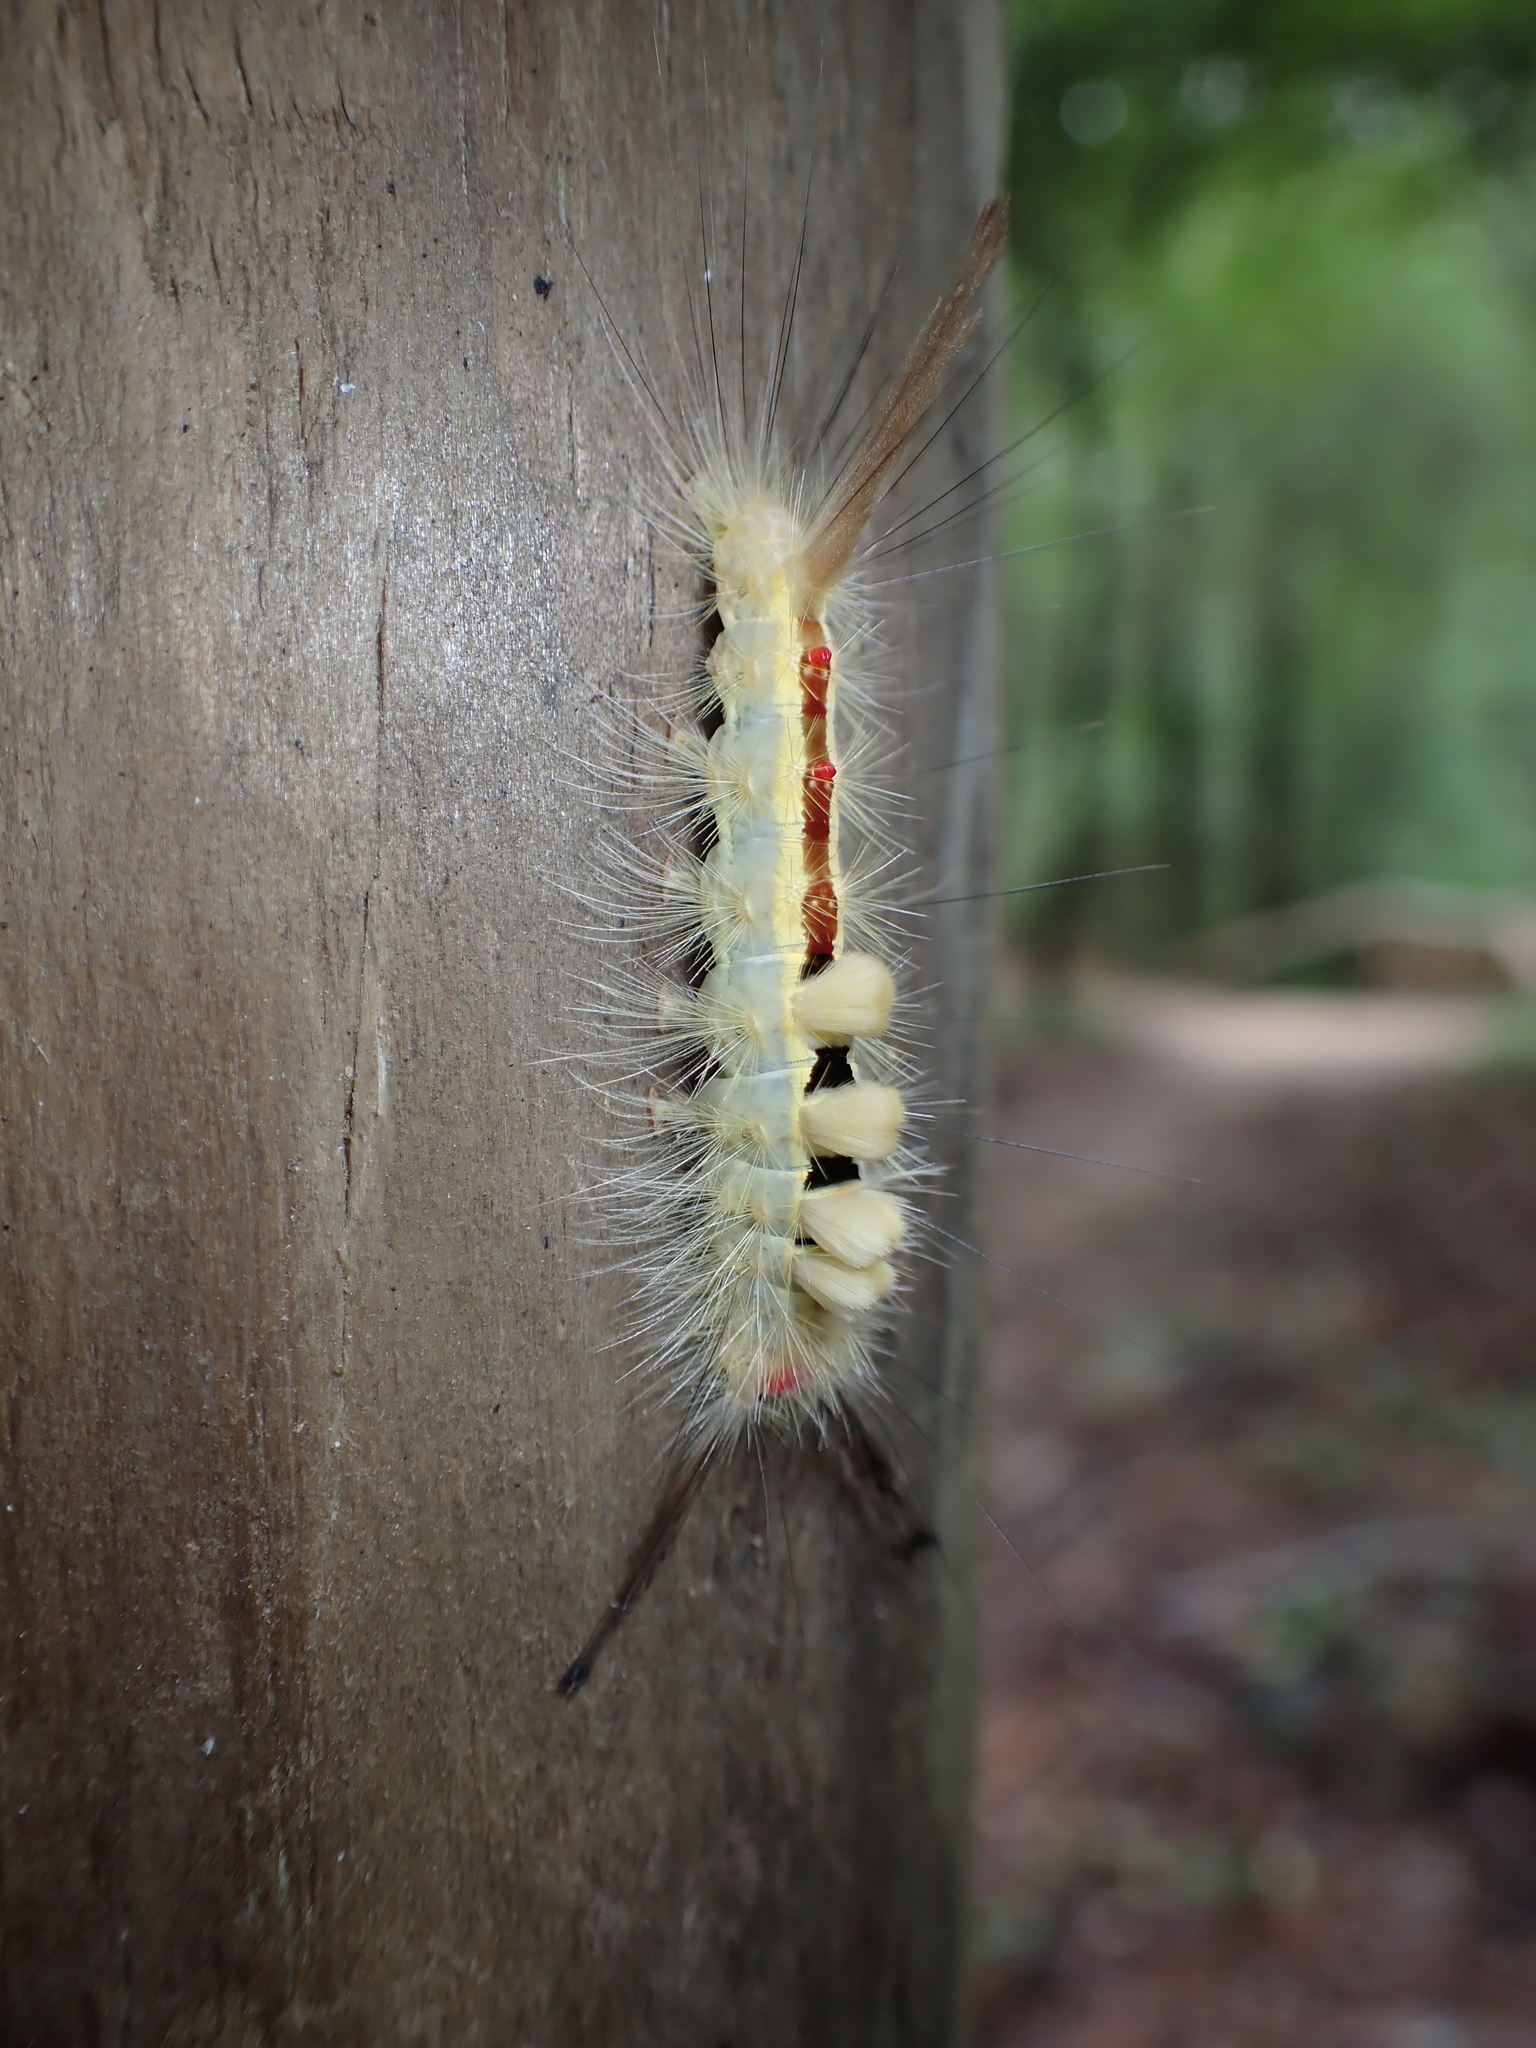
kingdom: Animalia
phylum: Arthropoda
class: Insecta
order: Lepidoptera
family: Erebidae
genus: Orgyia
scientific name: Orgyia leucostigma
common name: White-marked tussock moth
